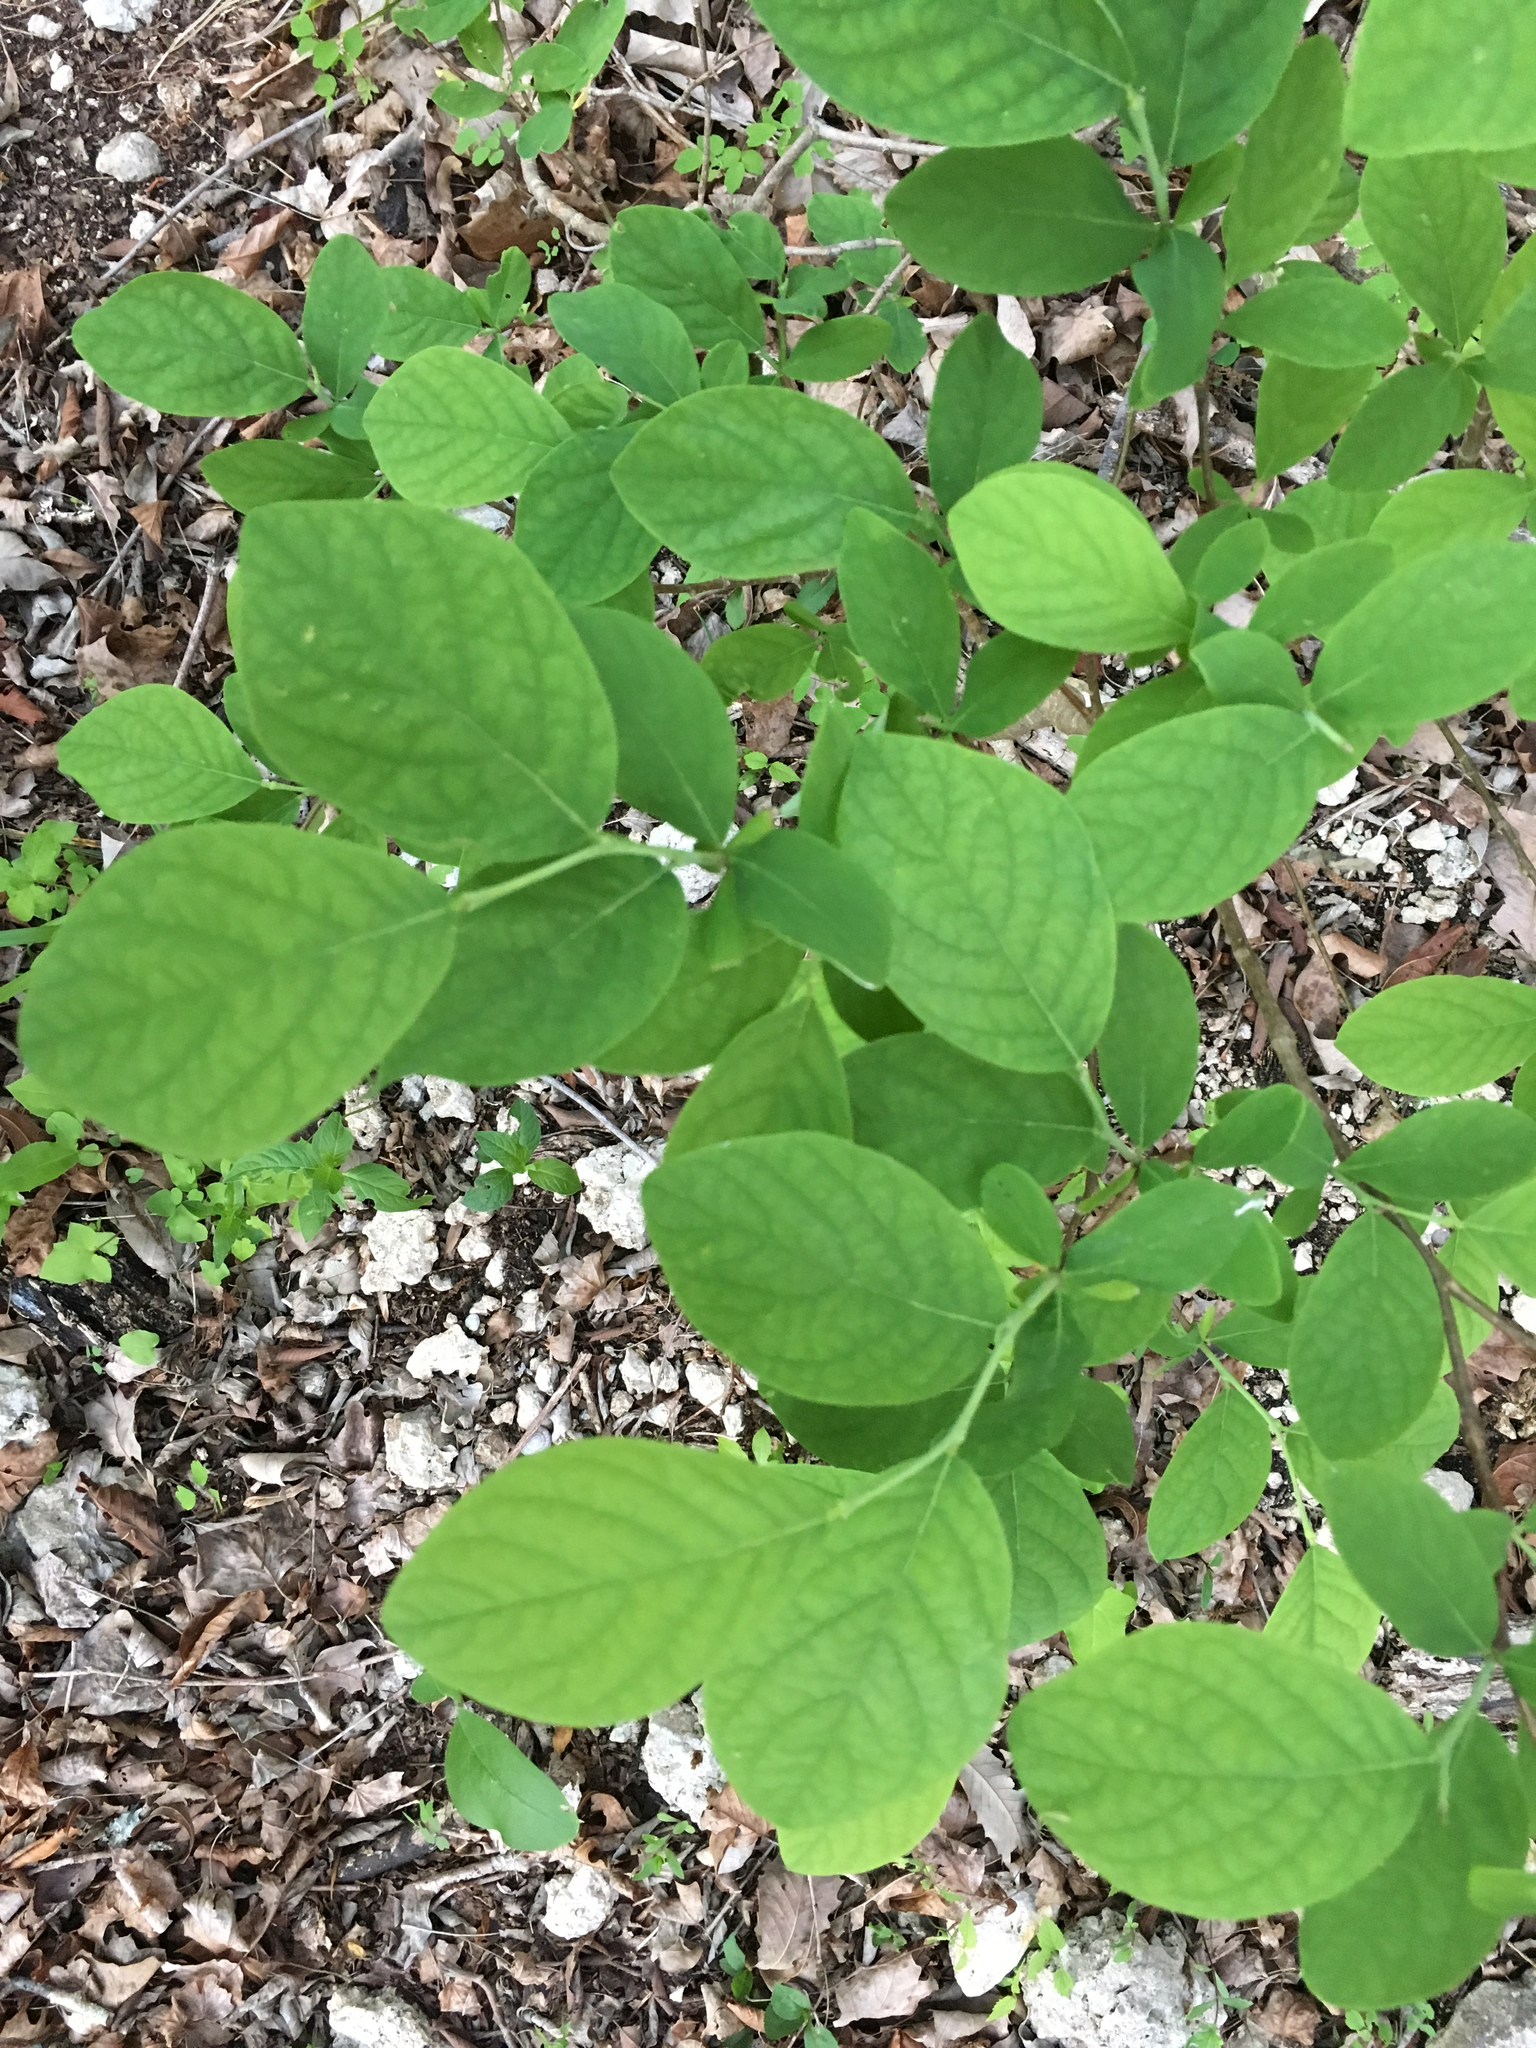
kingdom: Plantae
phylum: Tracheophyta
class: Magnoliopsida
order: Malvales
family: Thymelaeaceae
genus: Dirca
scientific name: Dirca palustris
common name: Leatherwood
